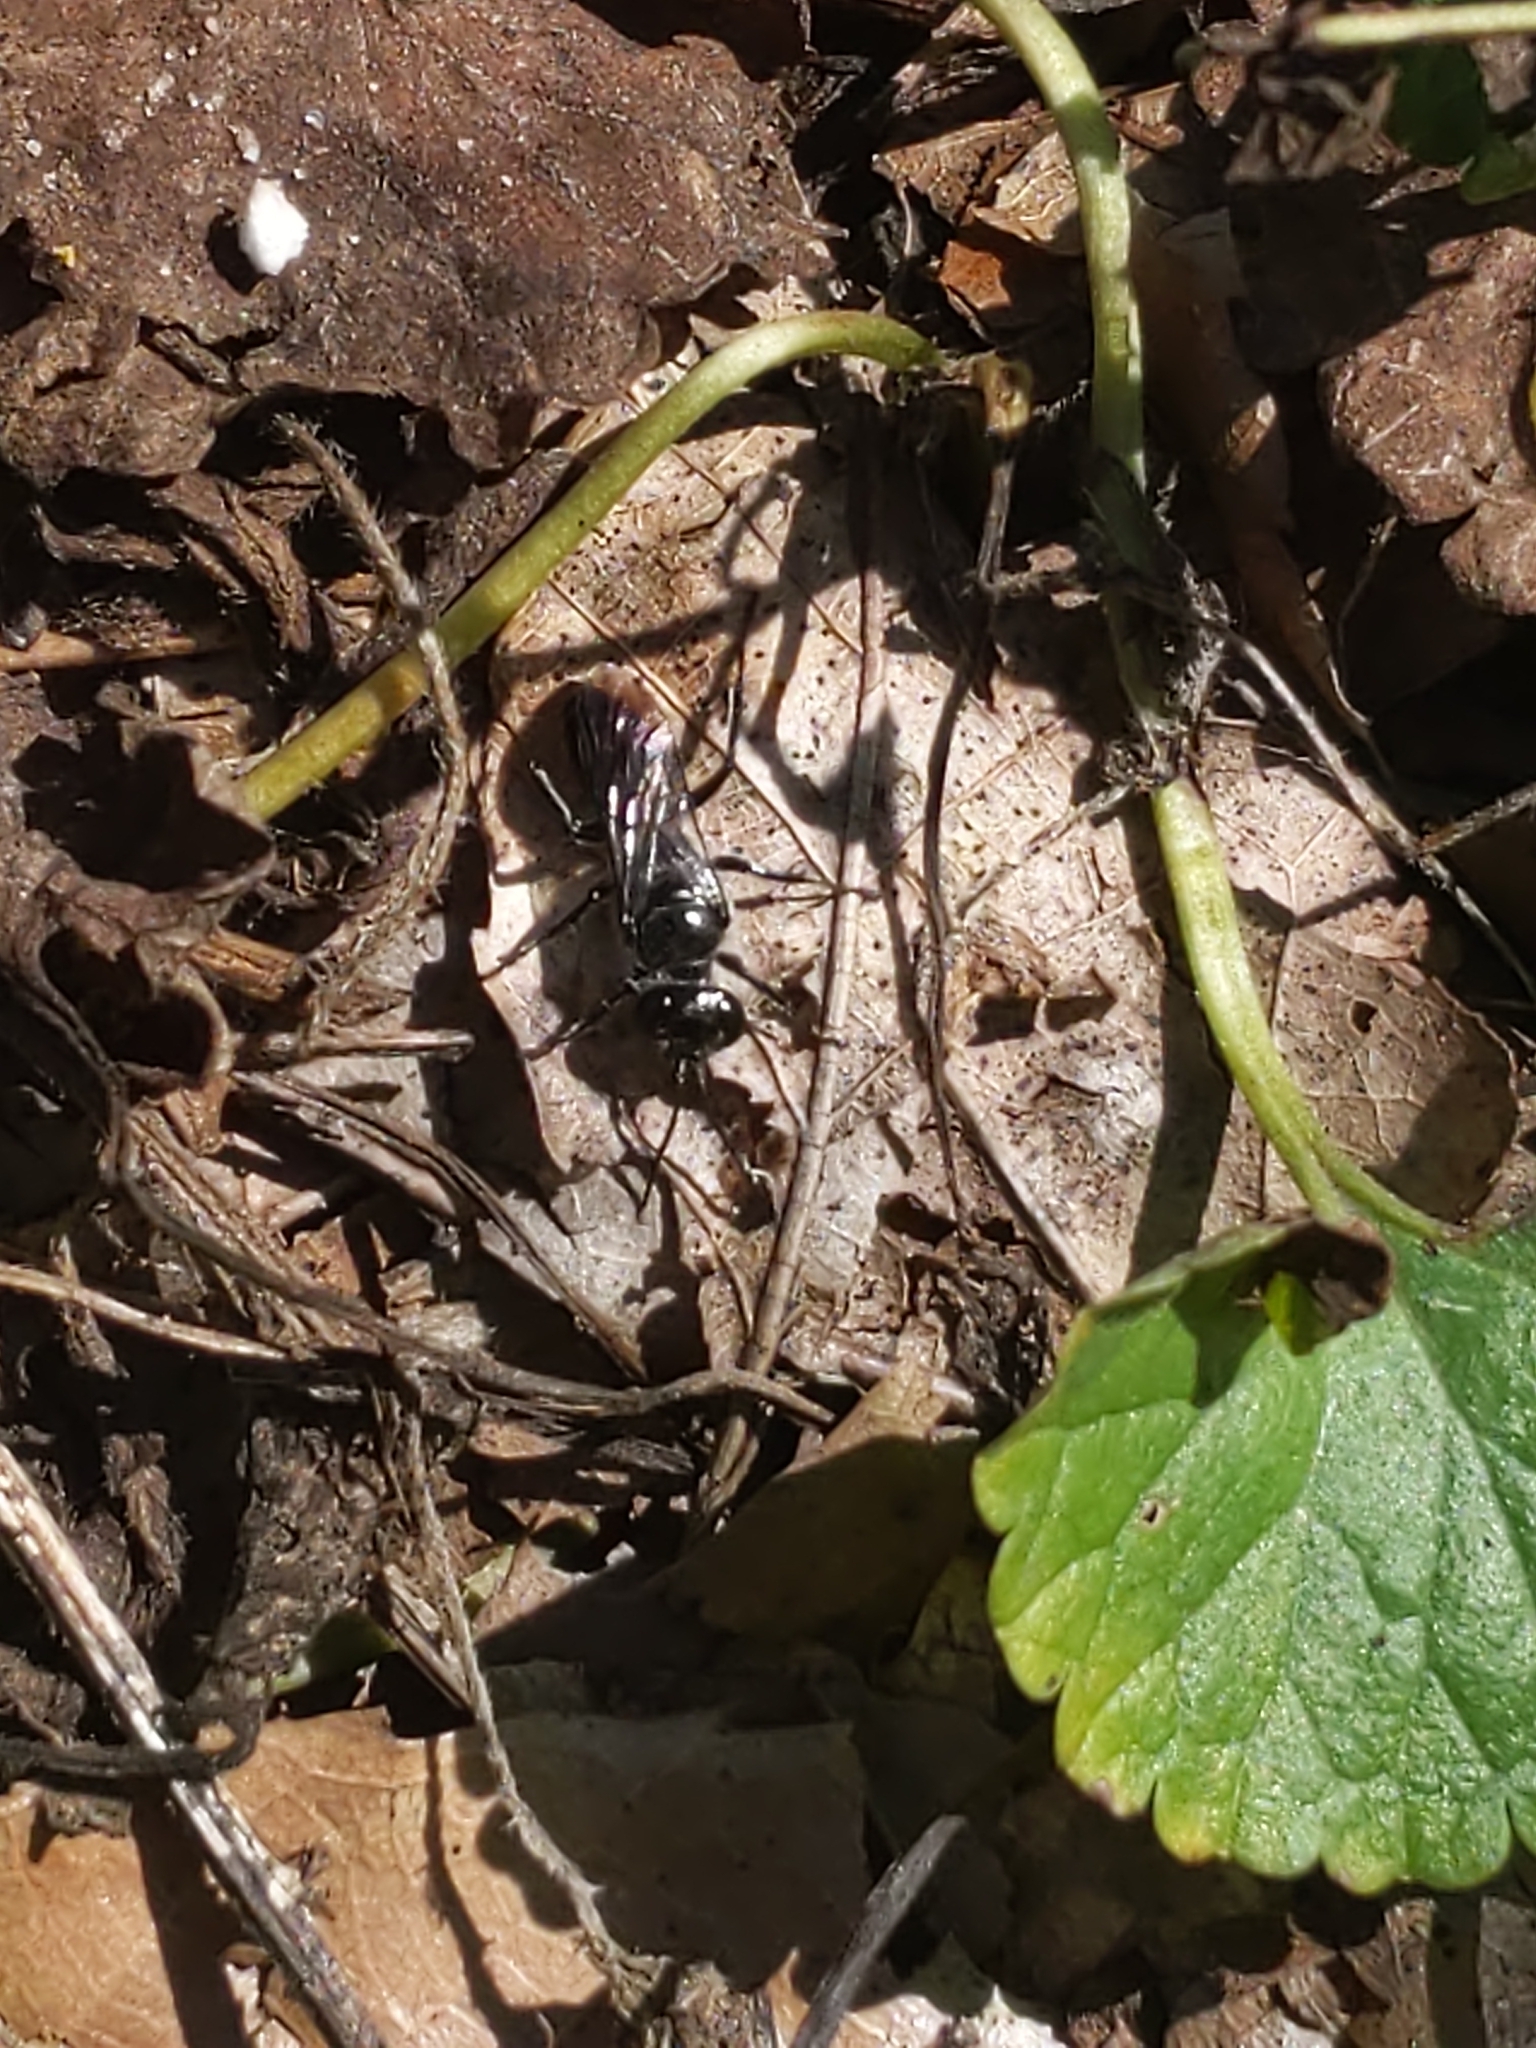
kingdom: Animalia
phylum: Arthropoda
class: Insecta
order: Hymenoptera
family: Crabronidae
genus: Astata
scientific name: Astata
